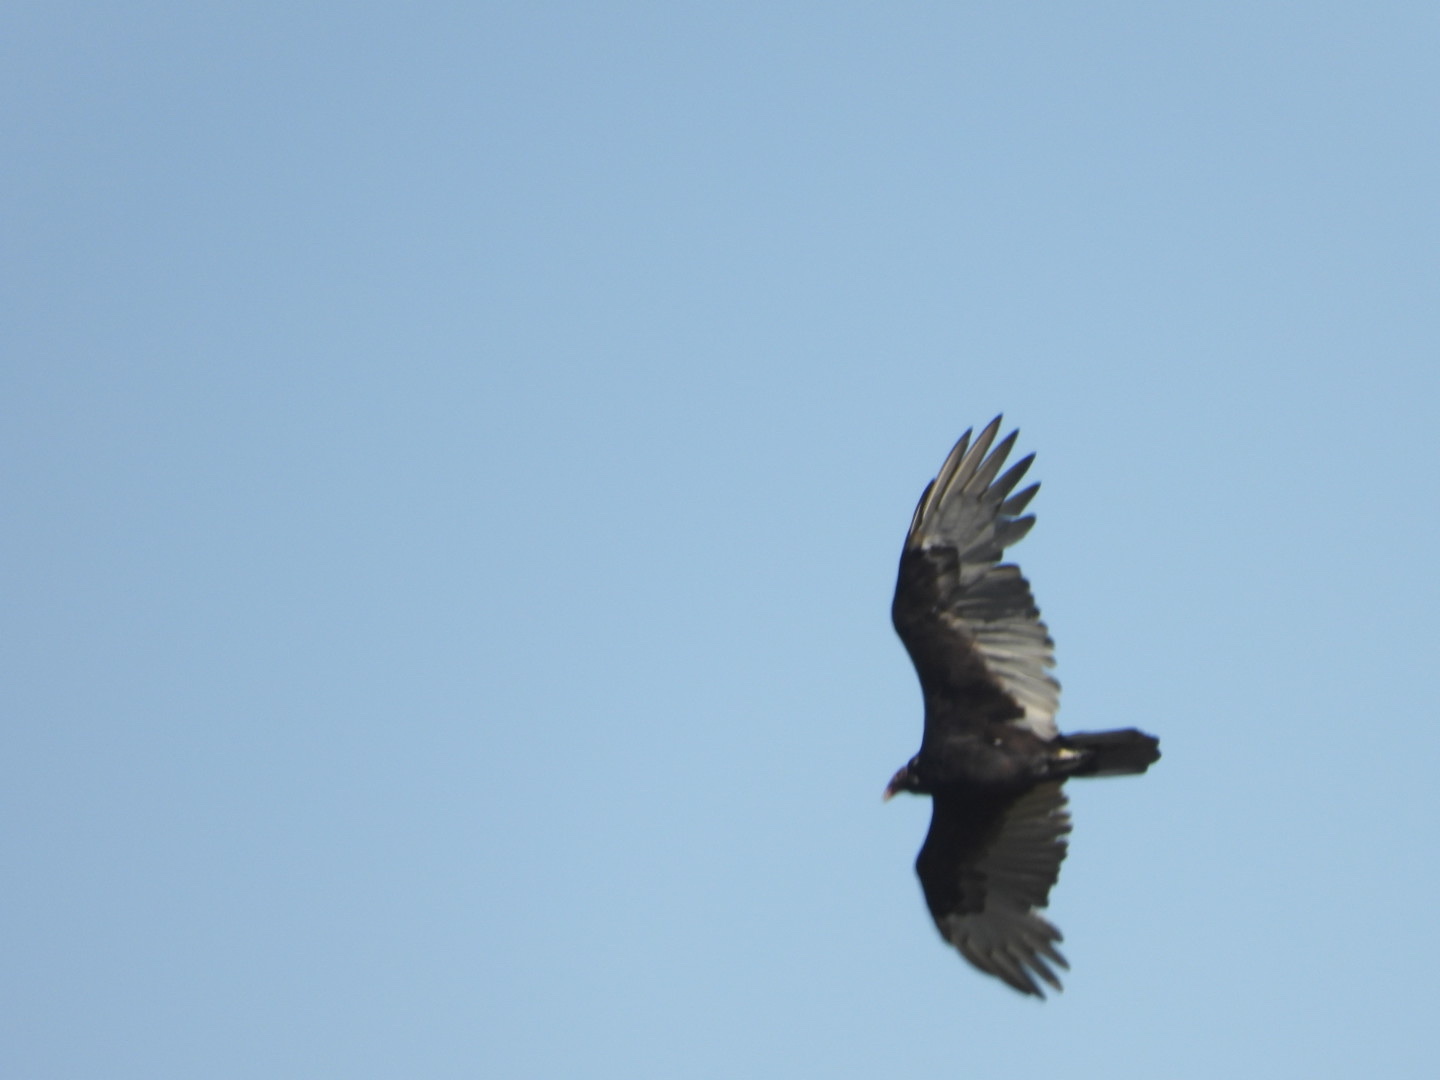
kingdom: Animalia
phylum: Chordata
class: Aves
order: Accipitriformes
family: Cathartidae
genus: Cathartes
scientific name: Cathartes aura
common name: Turkey vulture
